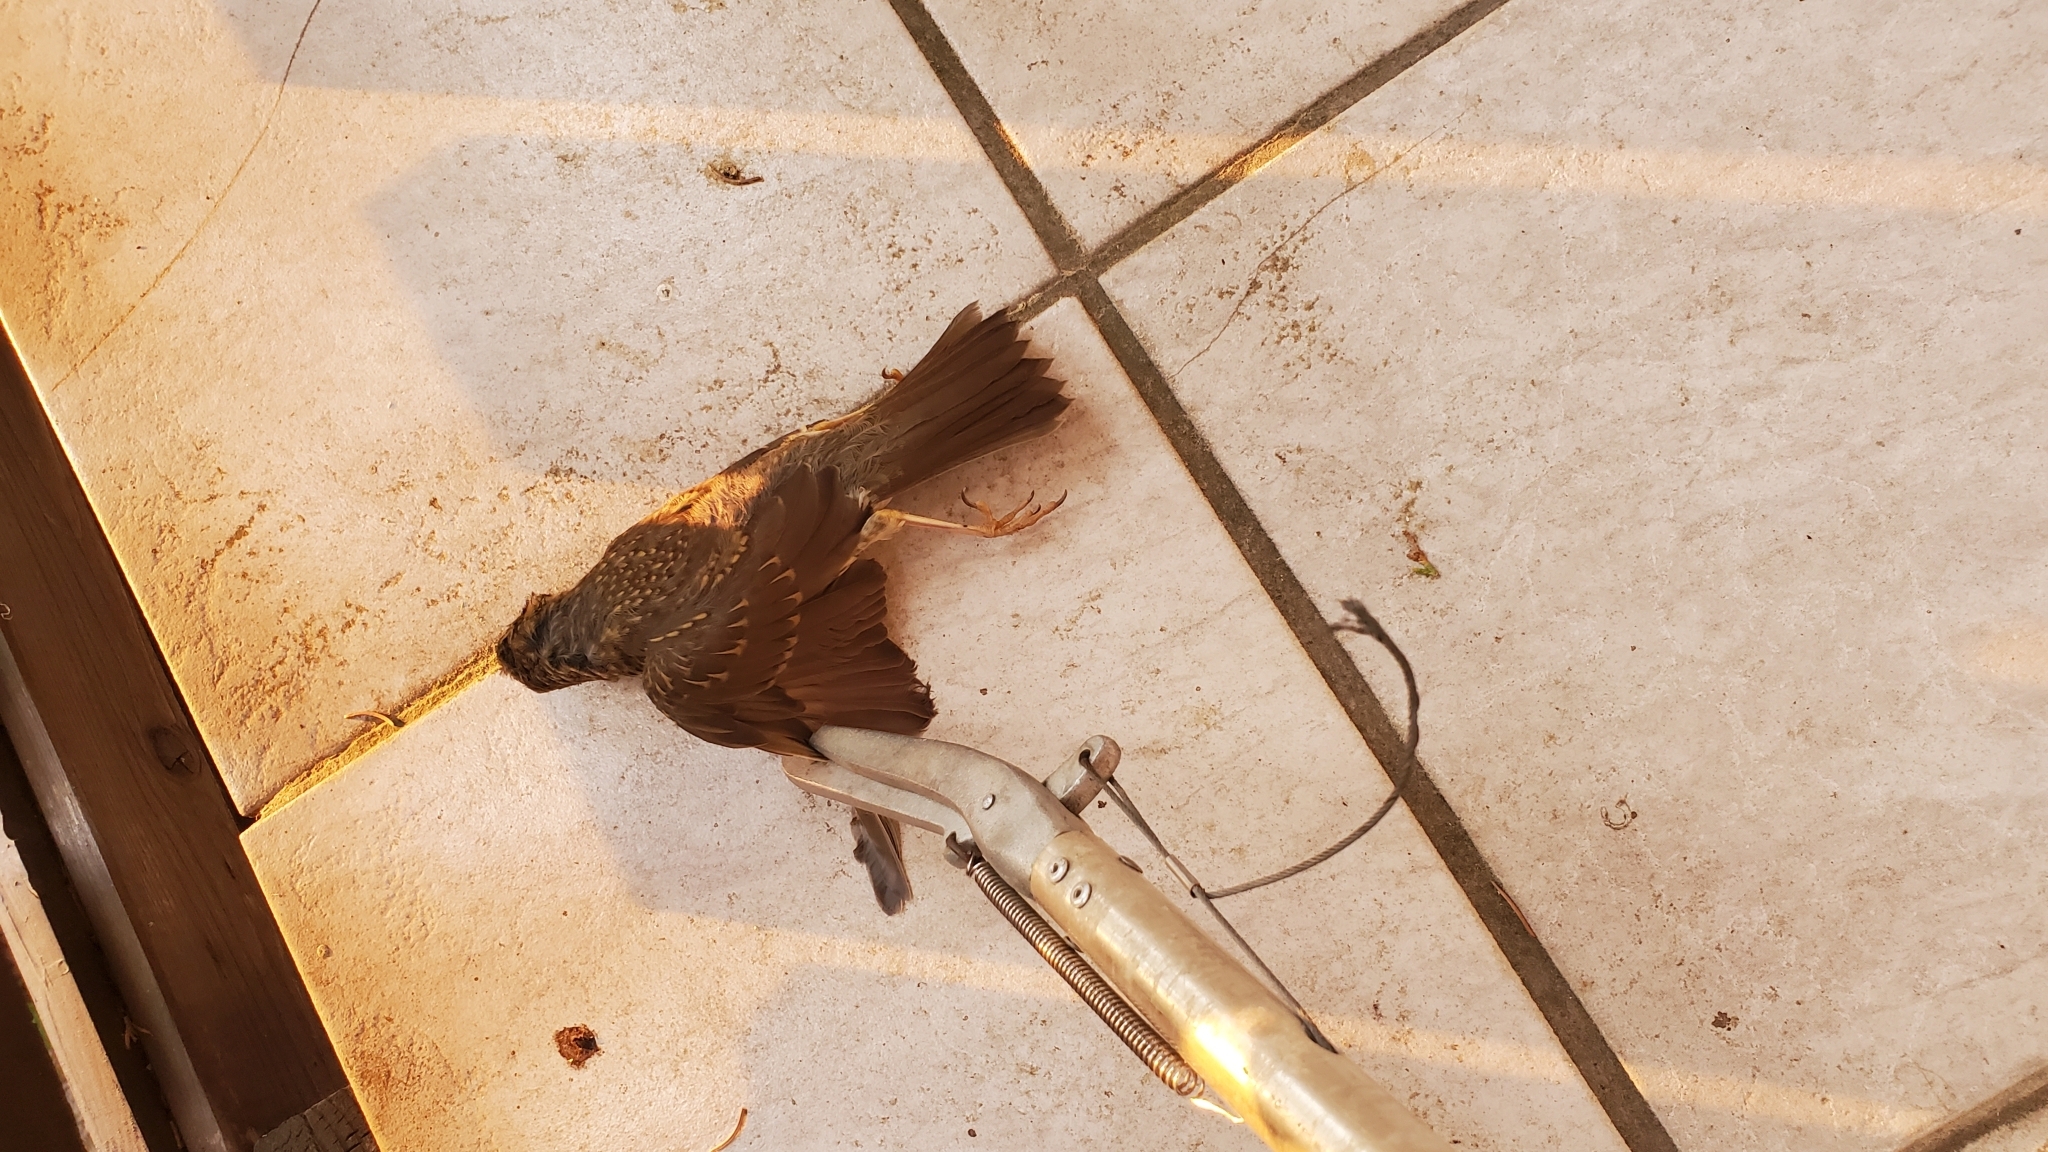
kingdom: Animalia
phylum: Chordata
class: Aves
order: Passeriformes
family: Turdidae
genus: Turdus
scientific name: Turdus philomelos
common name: Song thrush
